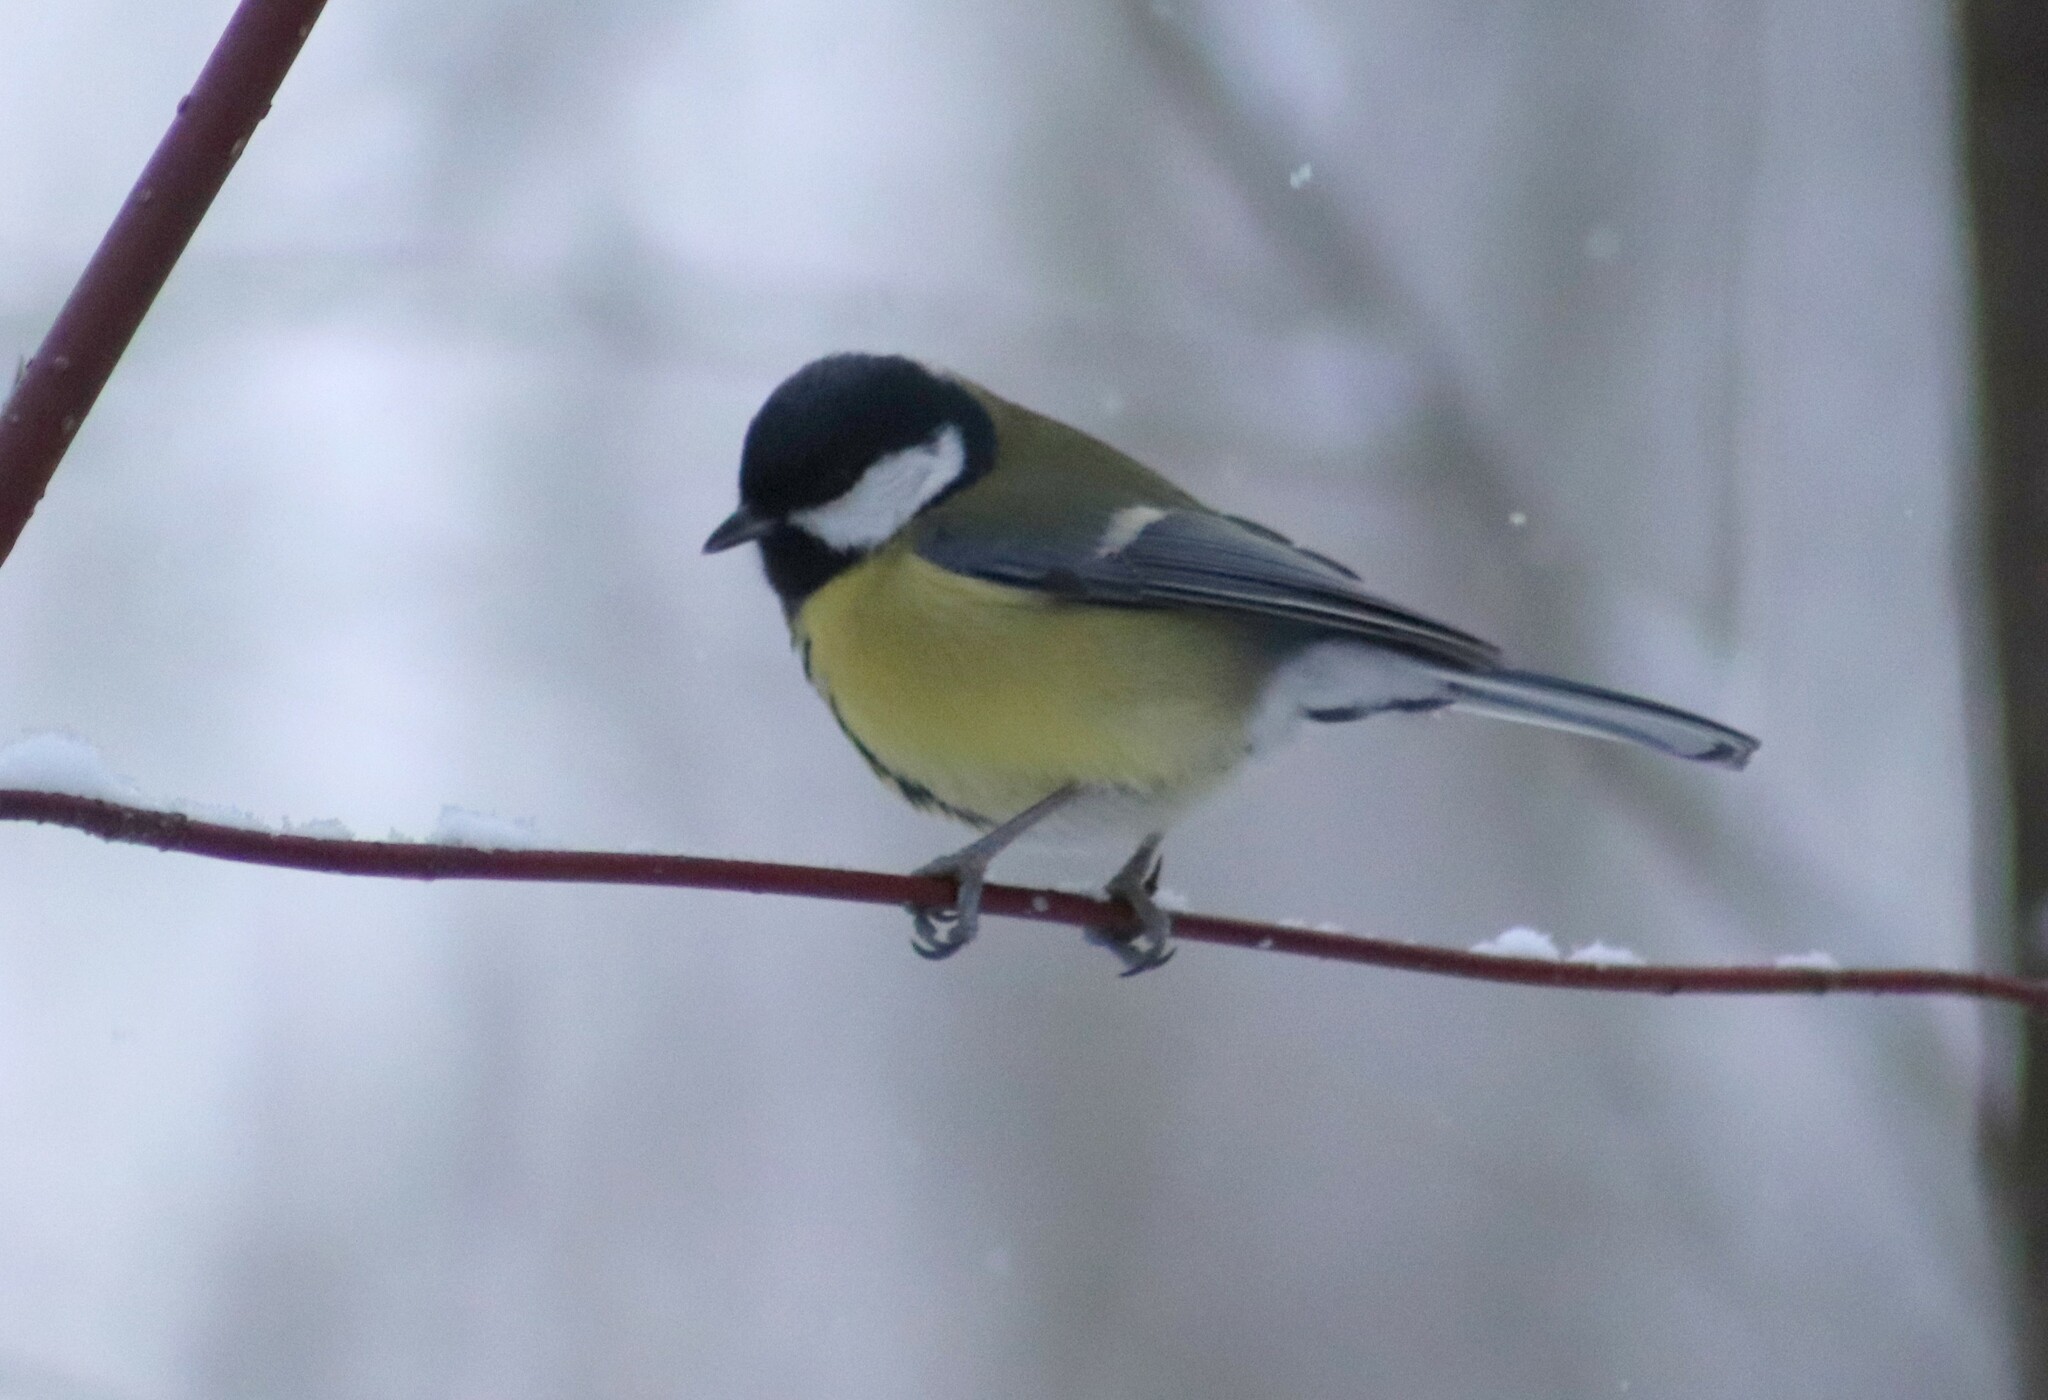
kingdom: Animalia
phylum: Chordata
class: Aves
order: Passeriformes
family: Paridae
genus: Parus
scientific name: Parus major
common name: Great tit
